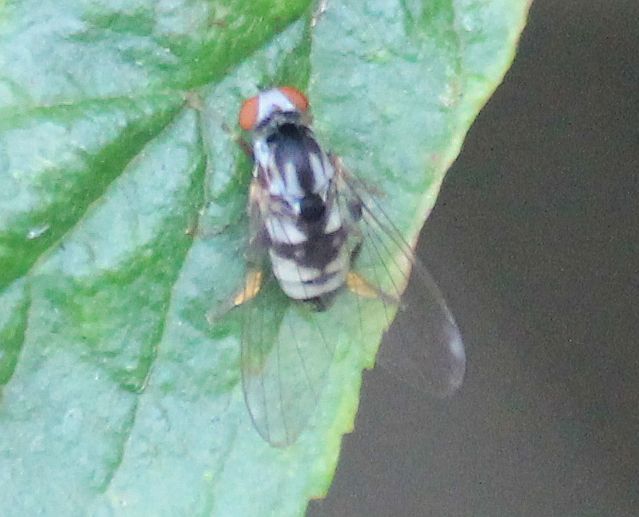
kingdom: Animalia
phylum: Arthropoda
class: Insecta
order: Diptera
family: Platypezidae
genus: Polyporivora
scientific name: Polyporivora picta
